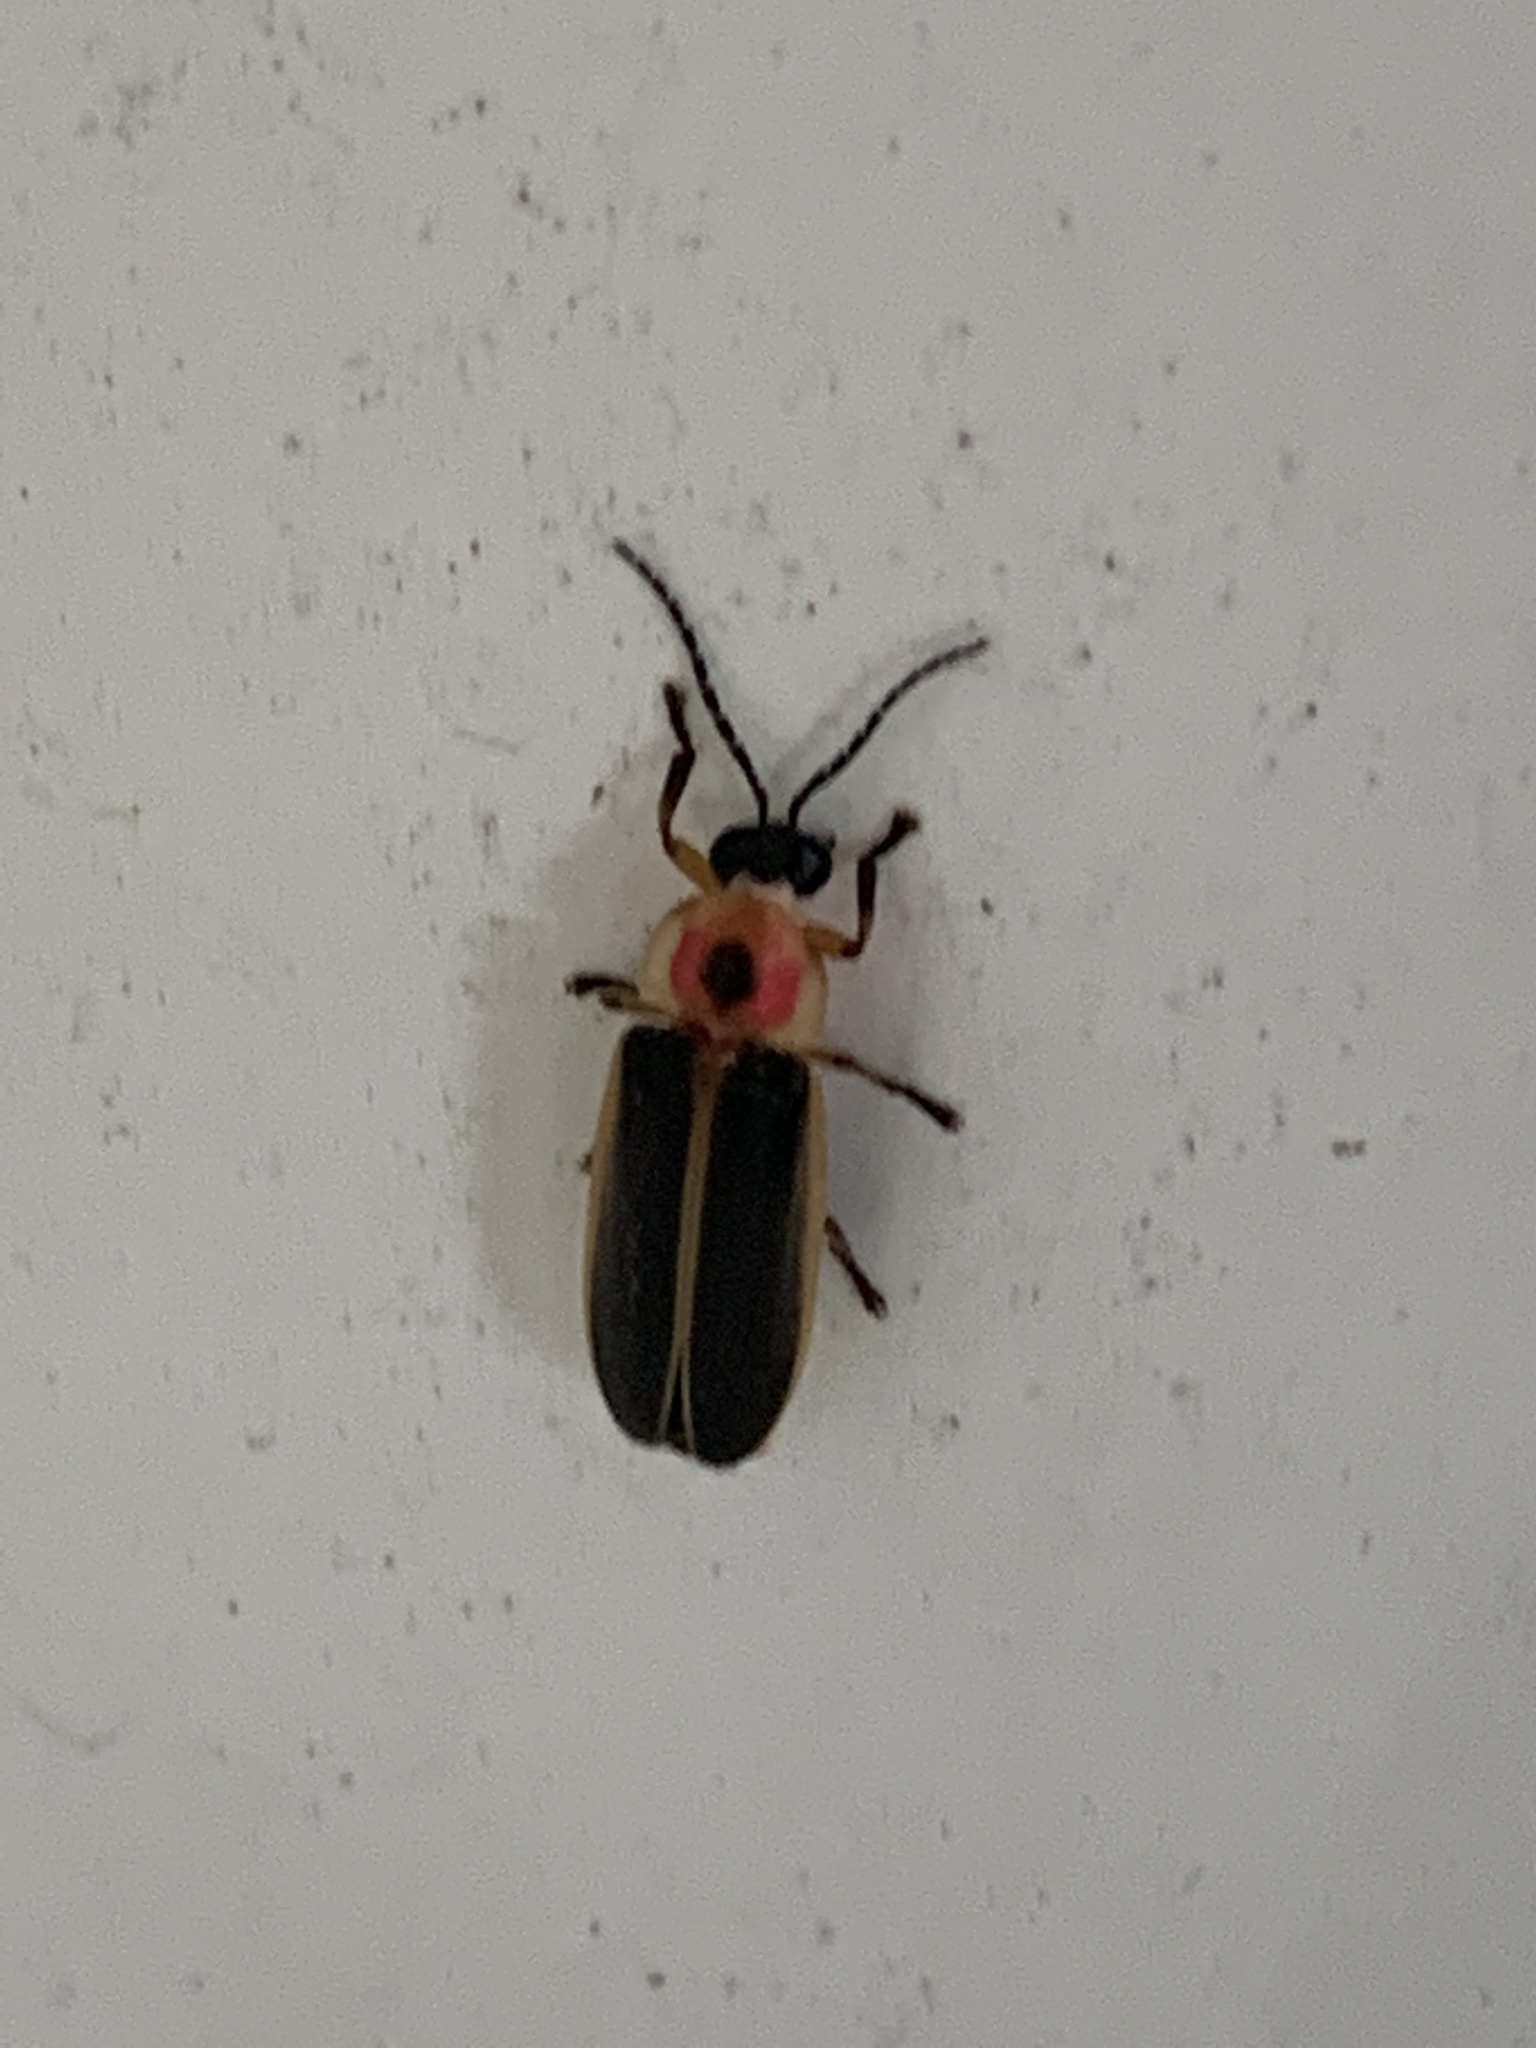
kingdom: Animalia
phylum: Arthropoda
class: Insecta
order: Coleoptera
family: Lampyridae
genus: Photinus
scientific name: Photinus pyralis
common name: Big dipper firefly
